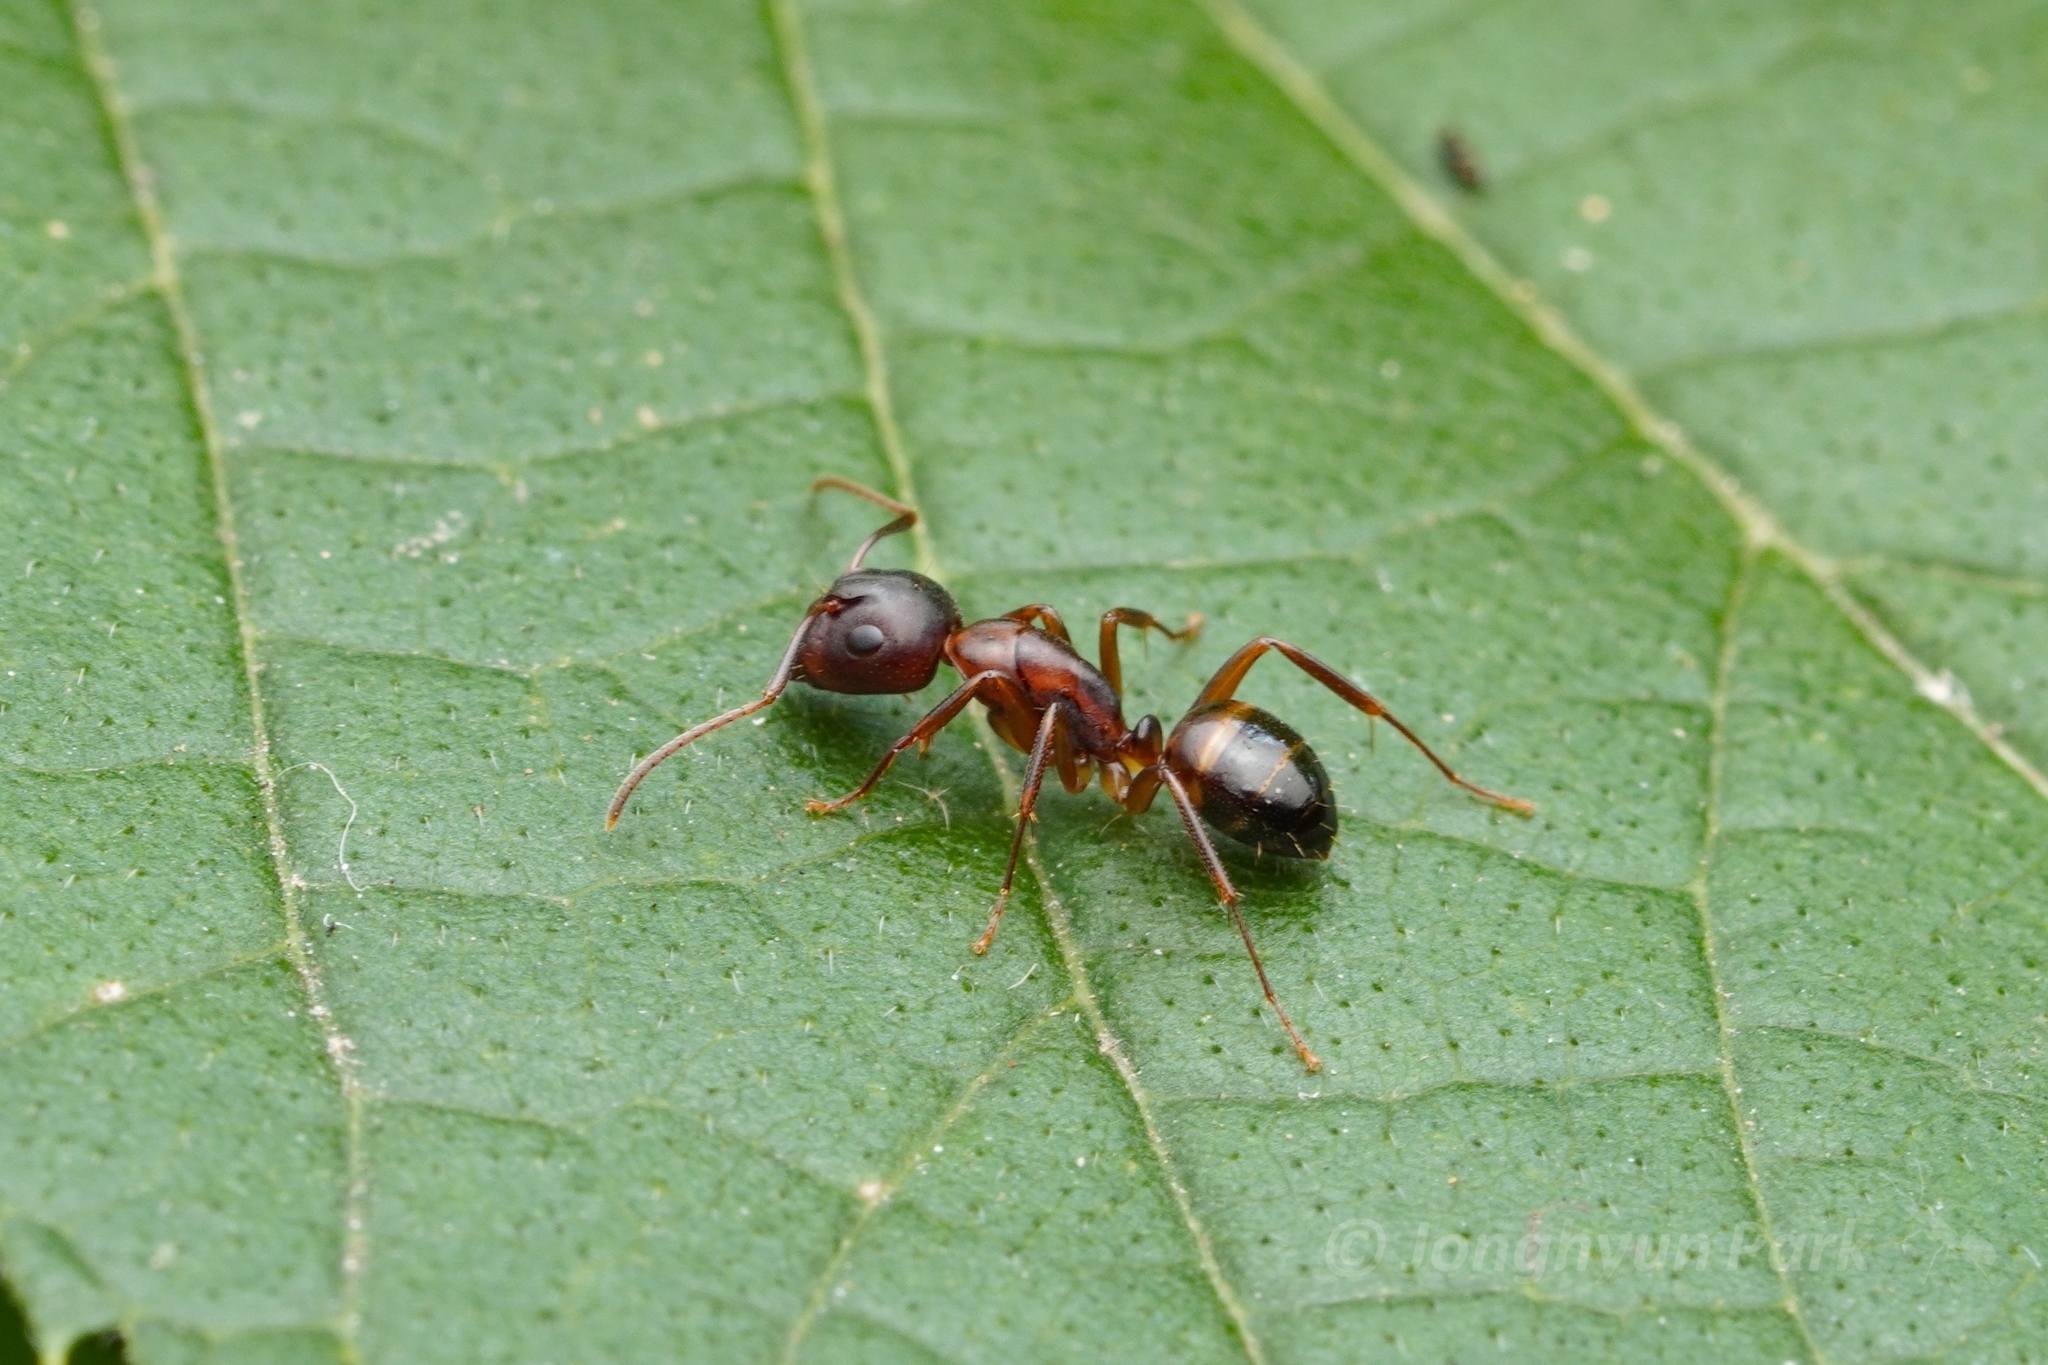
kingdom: Animalia
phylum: Arthropoda
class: Insecta
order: Hymenoptera
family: Formicidae
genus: Camponotus
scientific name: Camponotus subbarbatus
